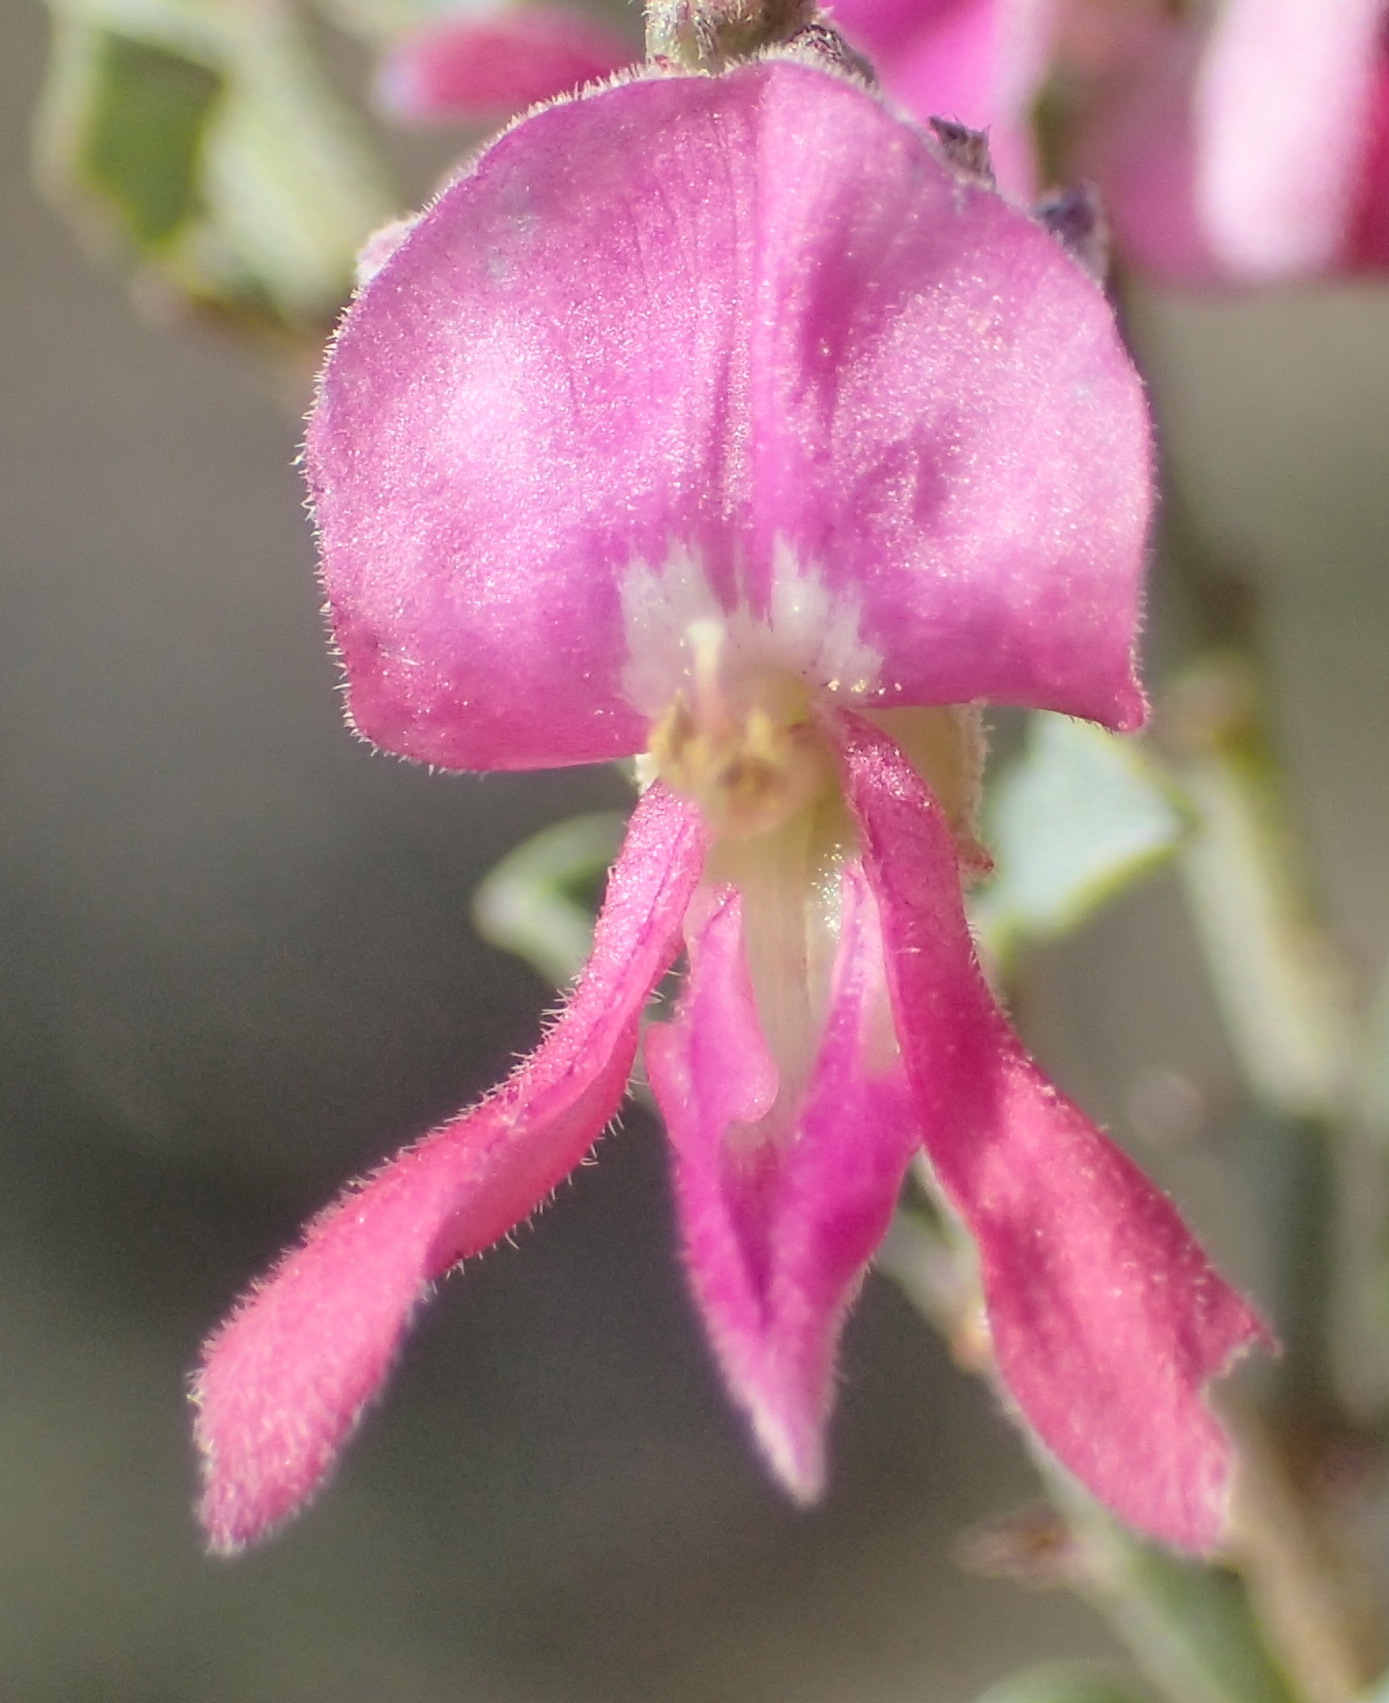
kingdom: Plantae
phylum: Tracheophyta
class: Magnoliopsida
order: Fabales
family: Fabaceae
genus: Indigofera
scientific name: Indigofera nigromontana
